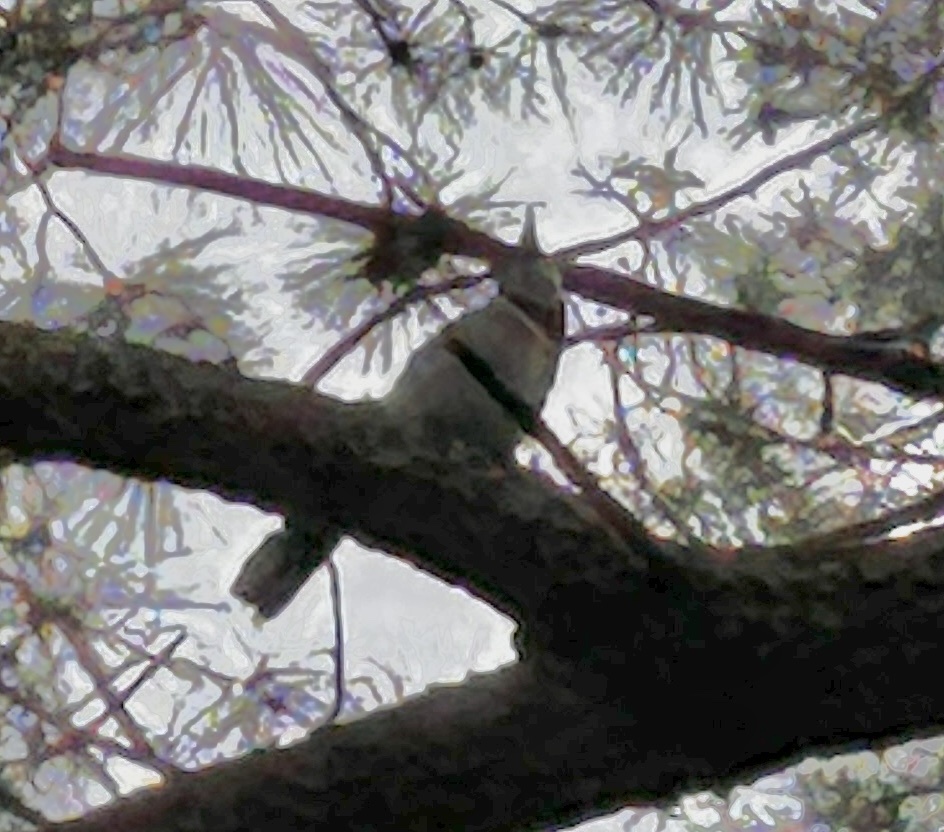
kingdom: Animalia
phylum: Chordata
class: Aves
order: Passeriformes
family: Corvidae
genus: Cyanocitta
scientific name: Cyanocitta cristata
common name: Blue jay
